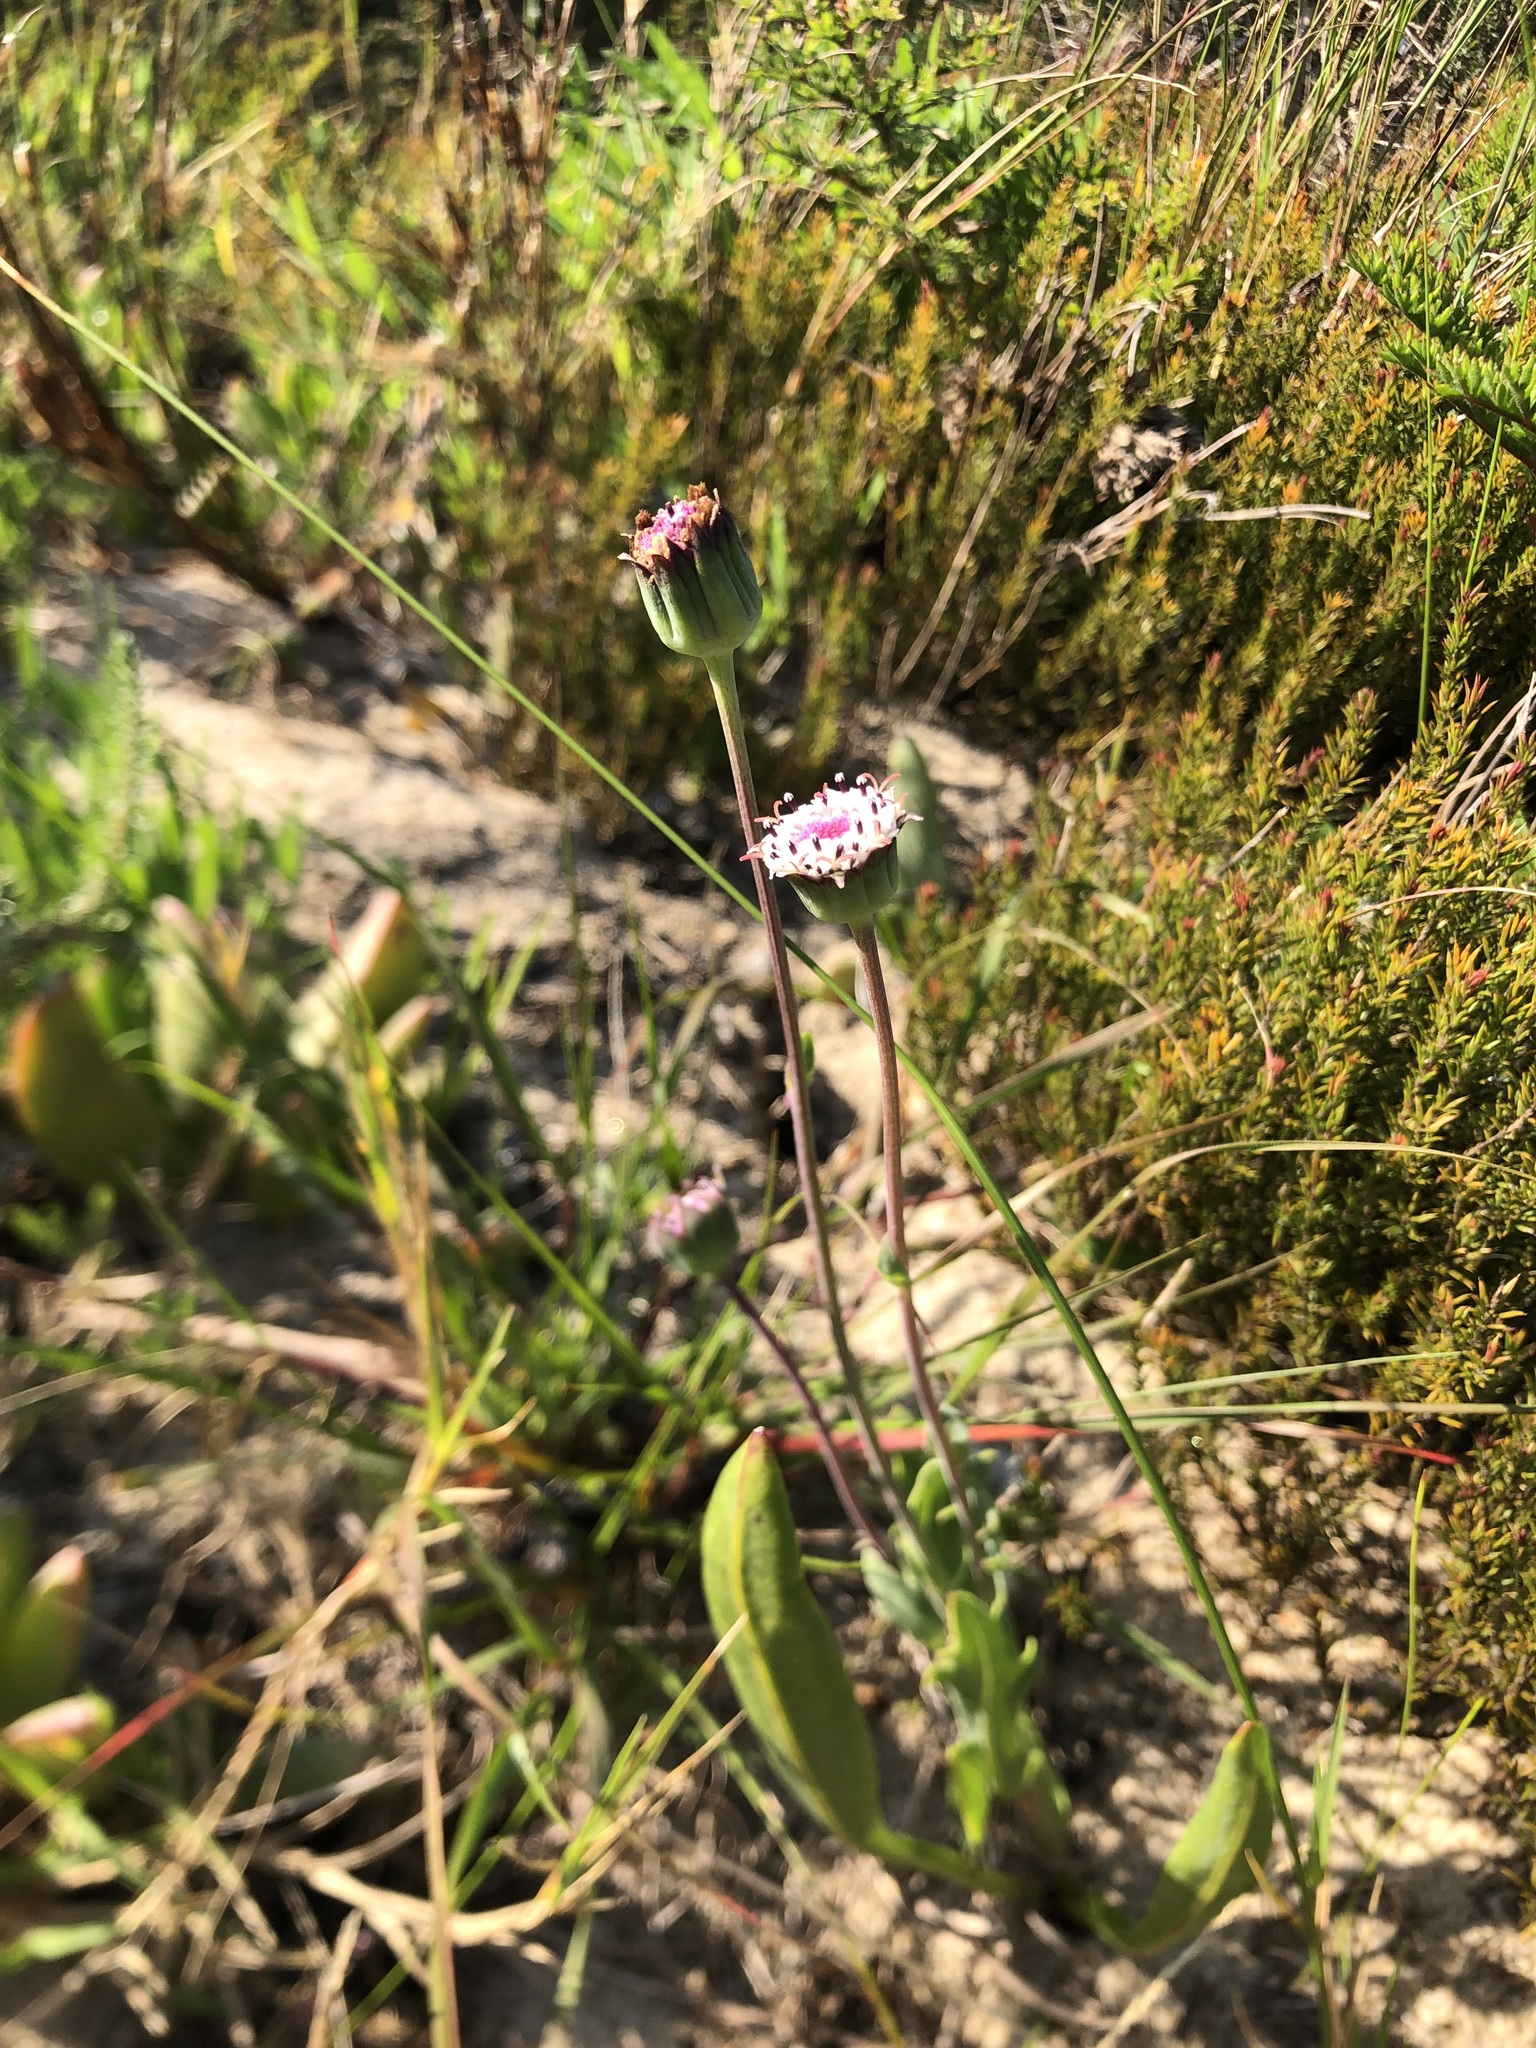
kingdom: Plantae
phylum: Tracheophyta
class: Magnoliopsida
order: Asterales
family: Asteraceae
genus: Othonna
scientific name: Othonna digitata
